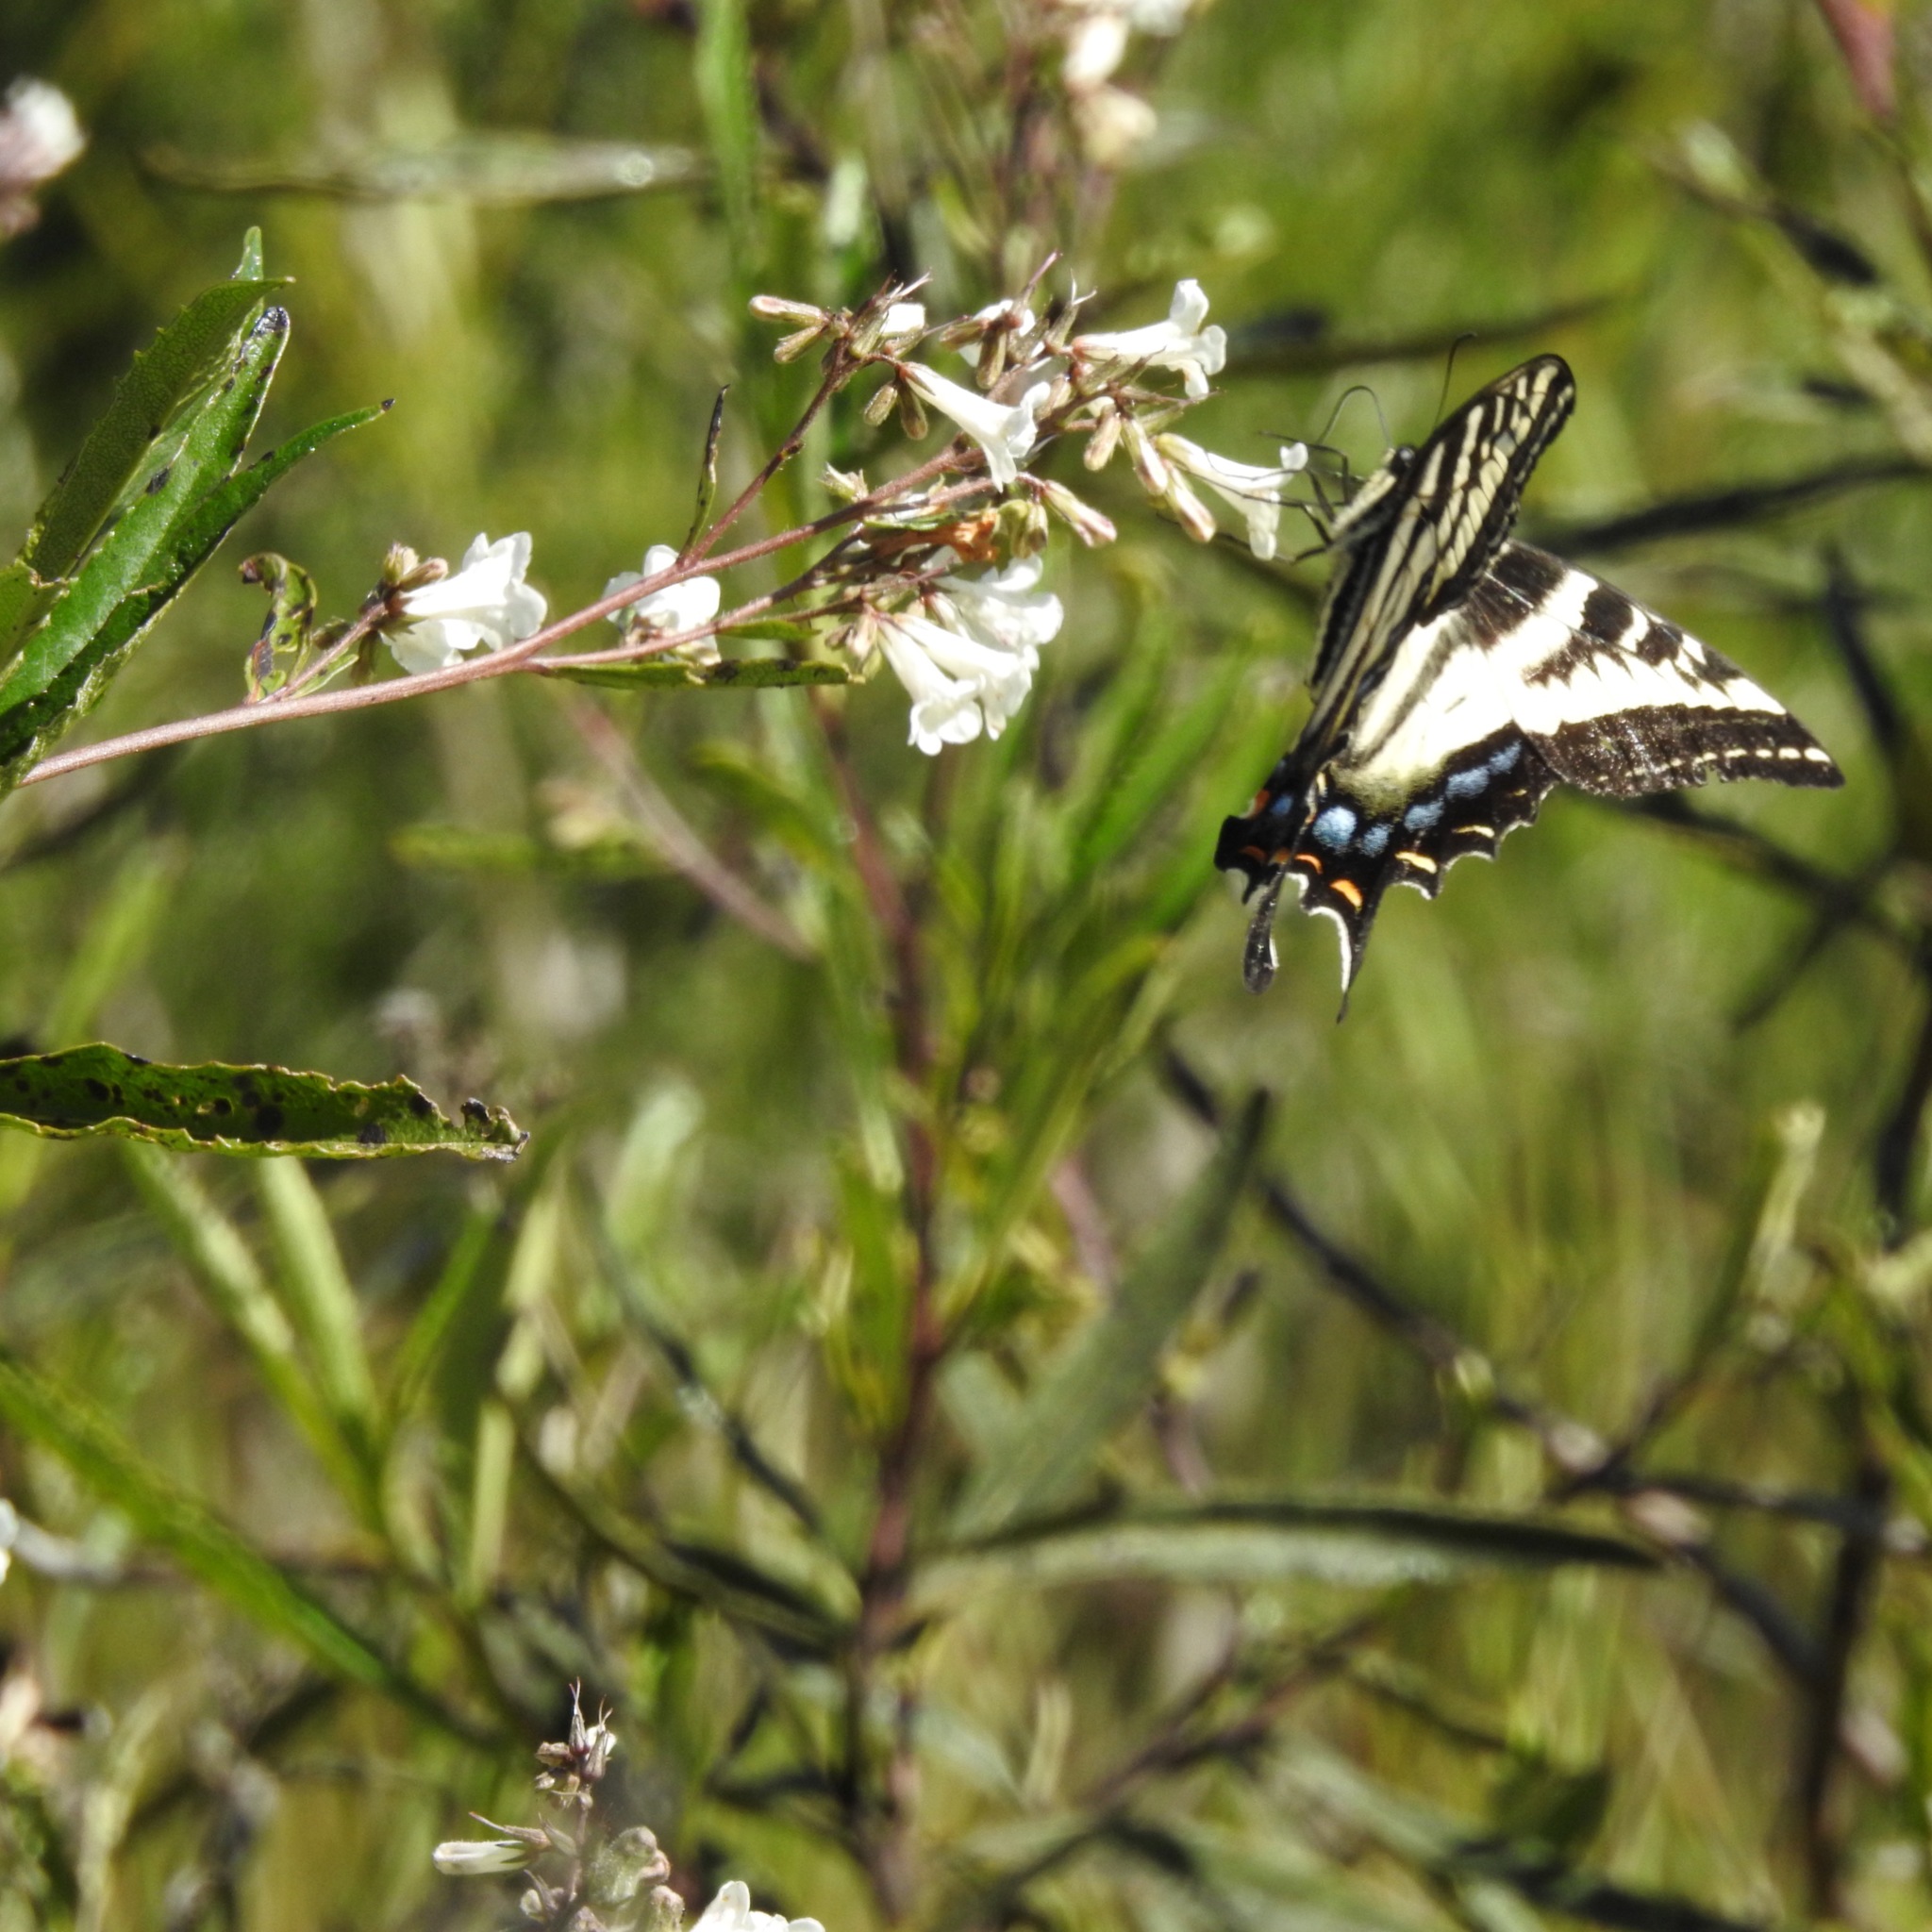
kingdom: Animalia
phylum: Arthropoda
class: Insecta
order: Lepidoptera
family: Papilionidae
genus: Papilio
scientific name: Papilio eurymedon
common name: Pale tiger swallowtail
